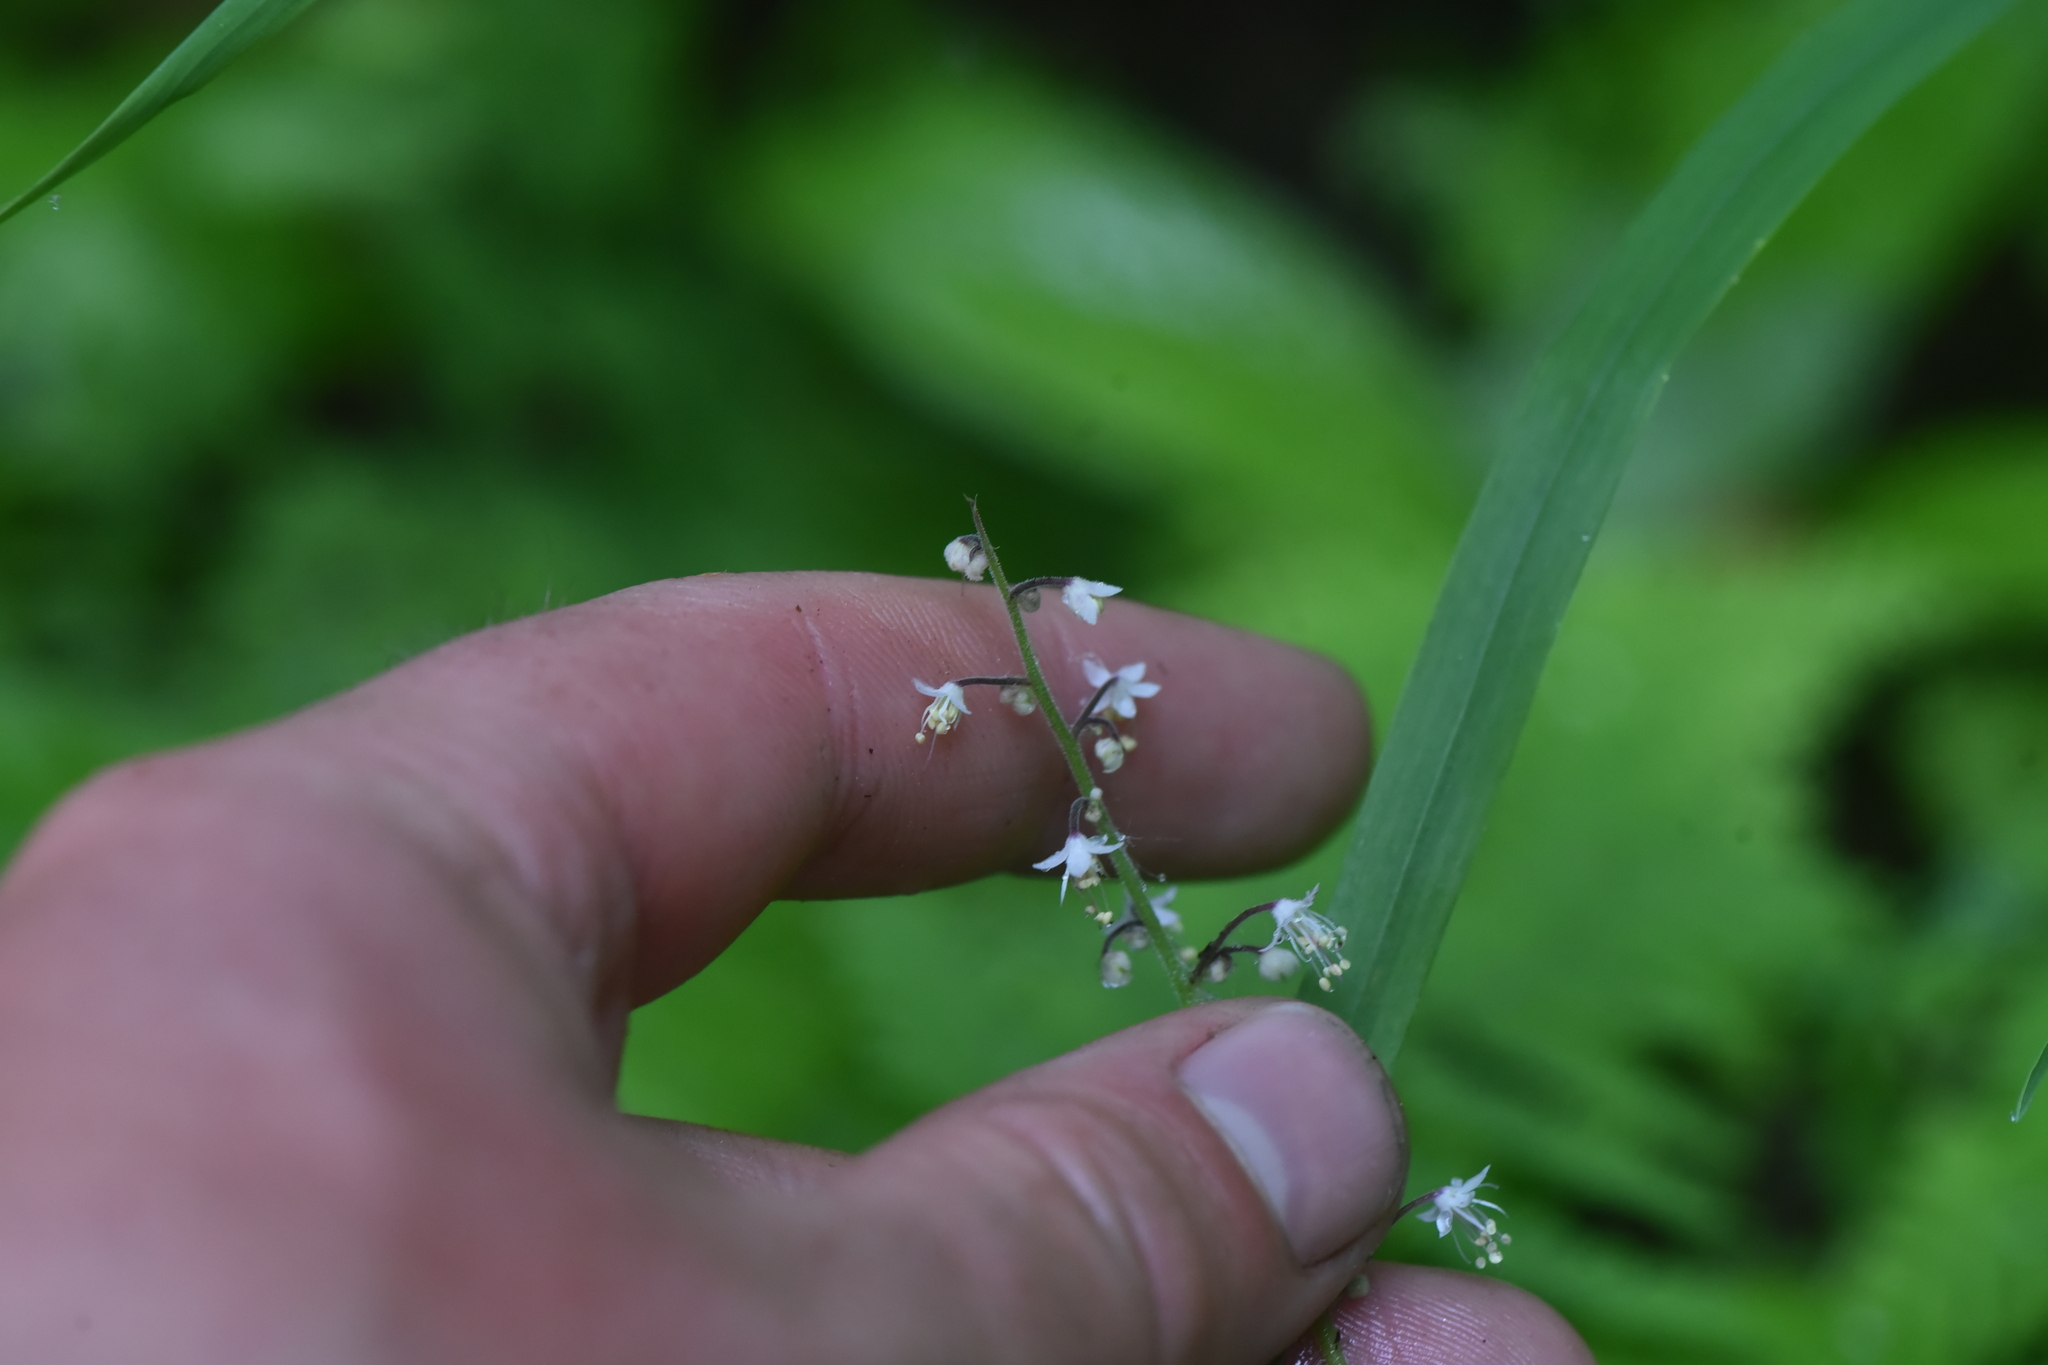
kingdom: Plantae
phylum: Tracheophyta
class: Magnoliopsida
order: Saxifragales
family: Saxifragaceae
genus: Tiarella
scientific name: Tiarella trifoliata
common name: Sugar-scoop
